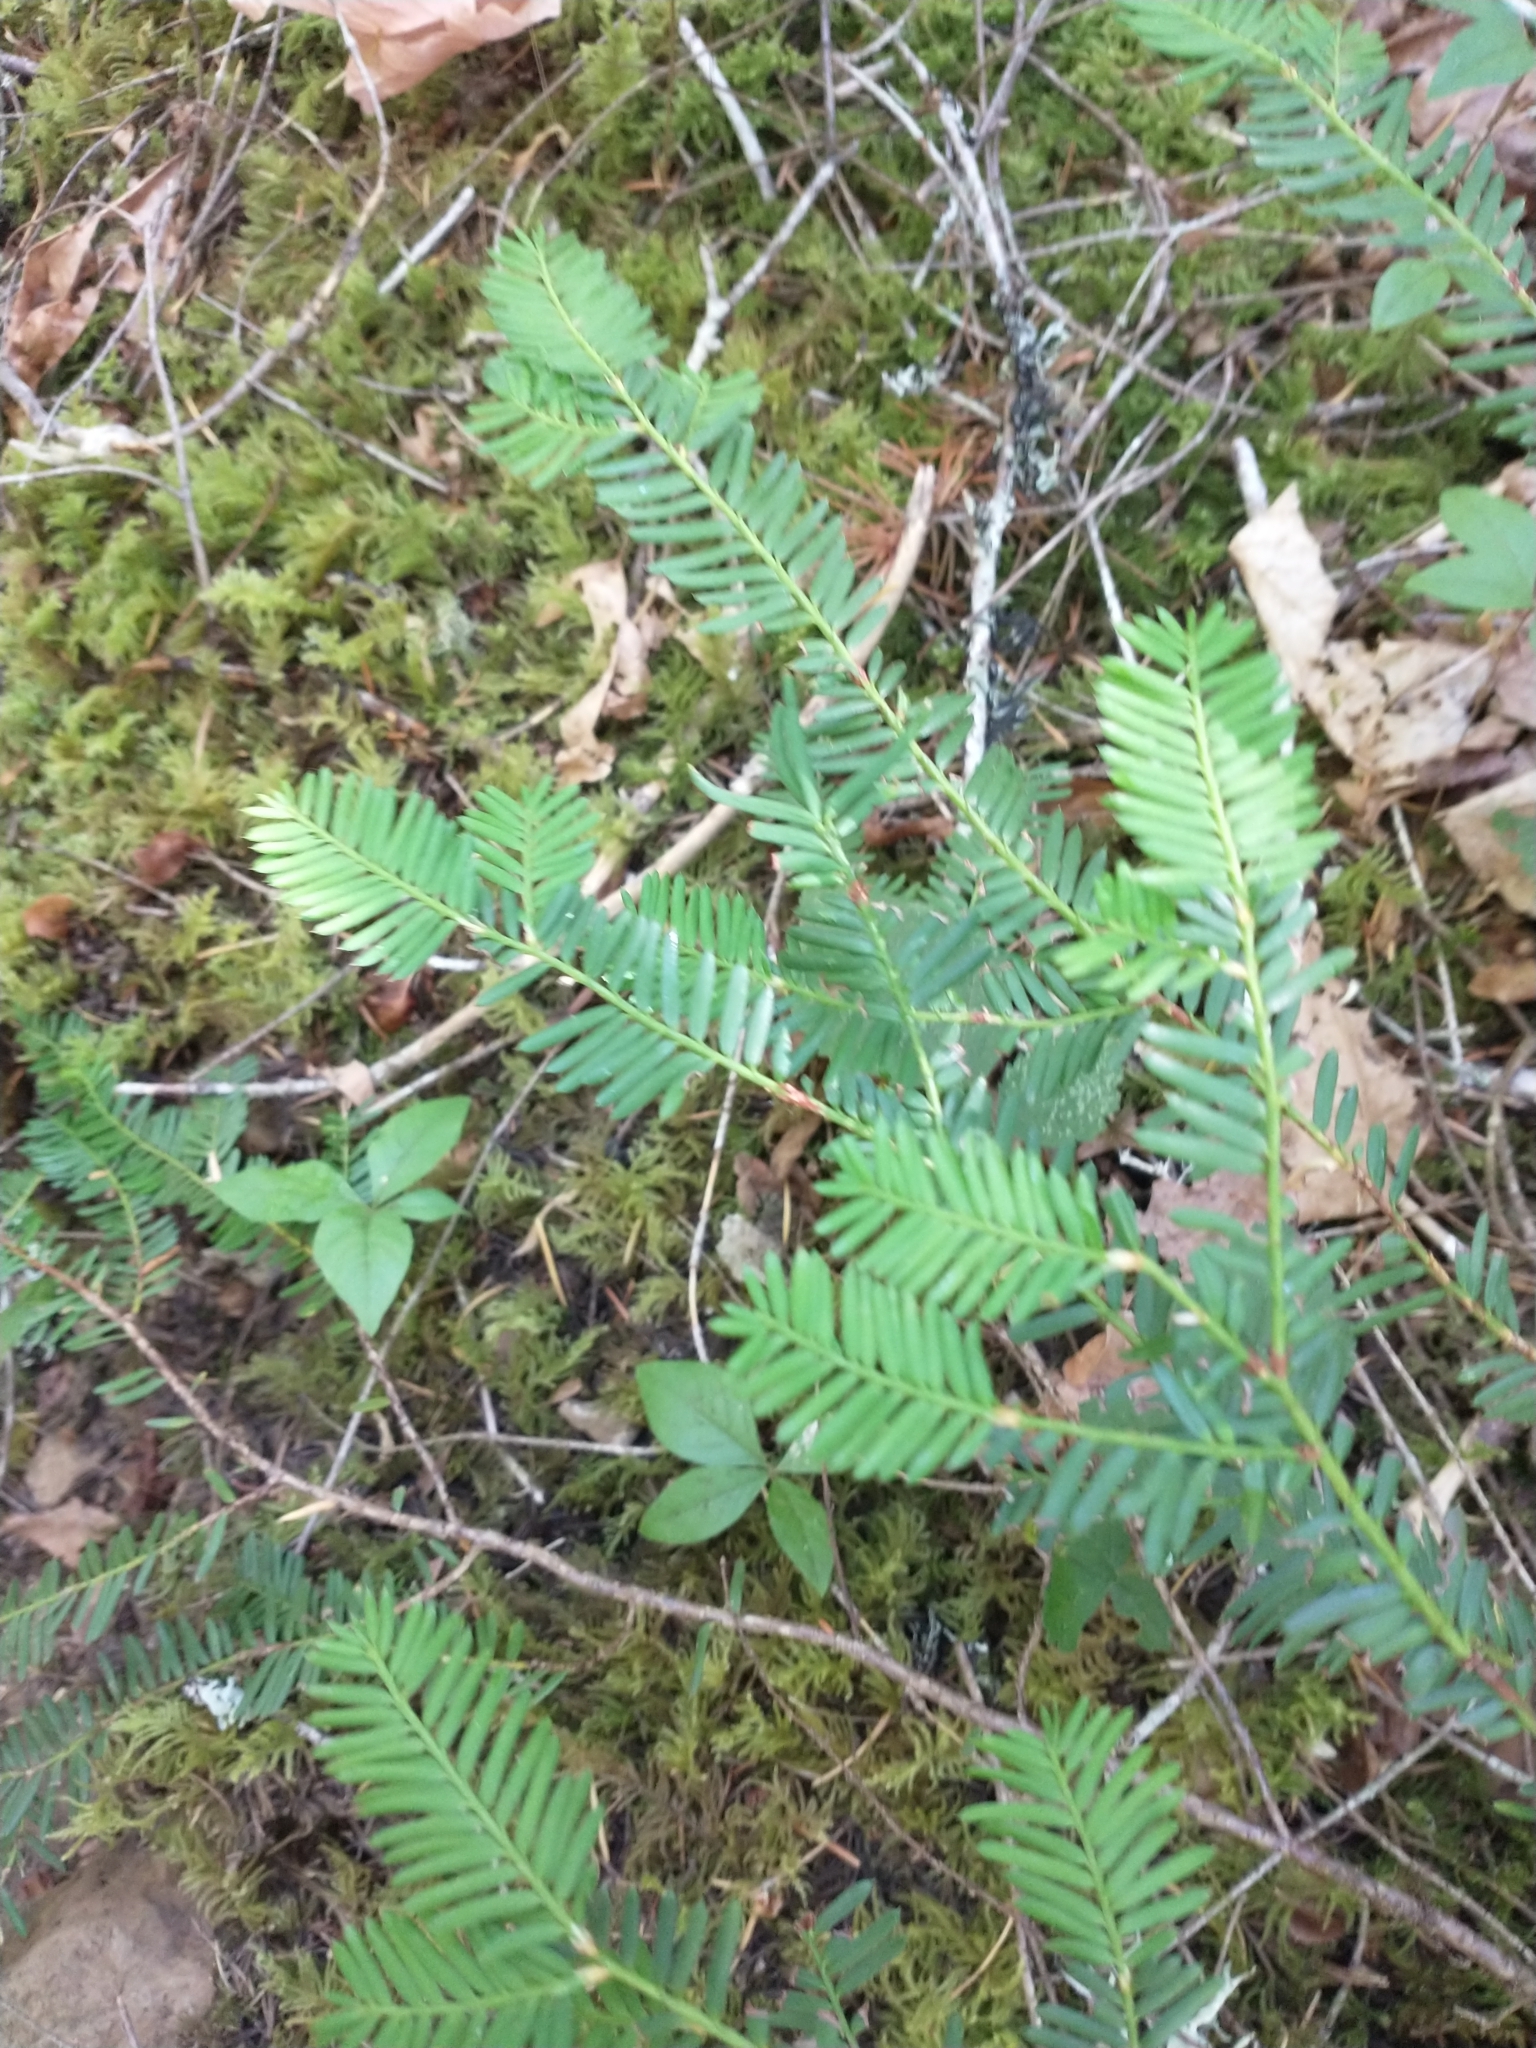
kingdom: Plantae
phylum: Tracheophyta
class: Pinopsida
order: Pinales
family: Taxaceae
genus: Taxus
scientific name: Taxus brevifolia
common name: Pacific yew
